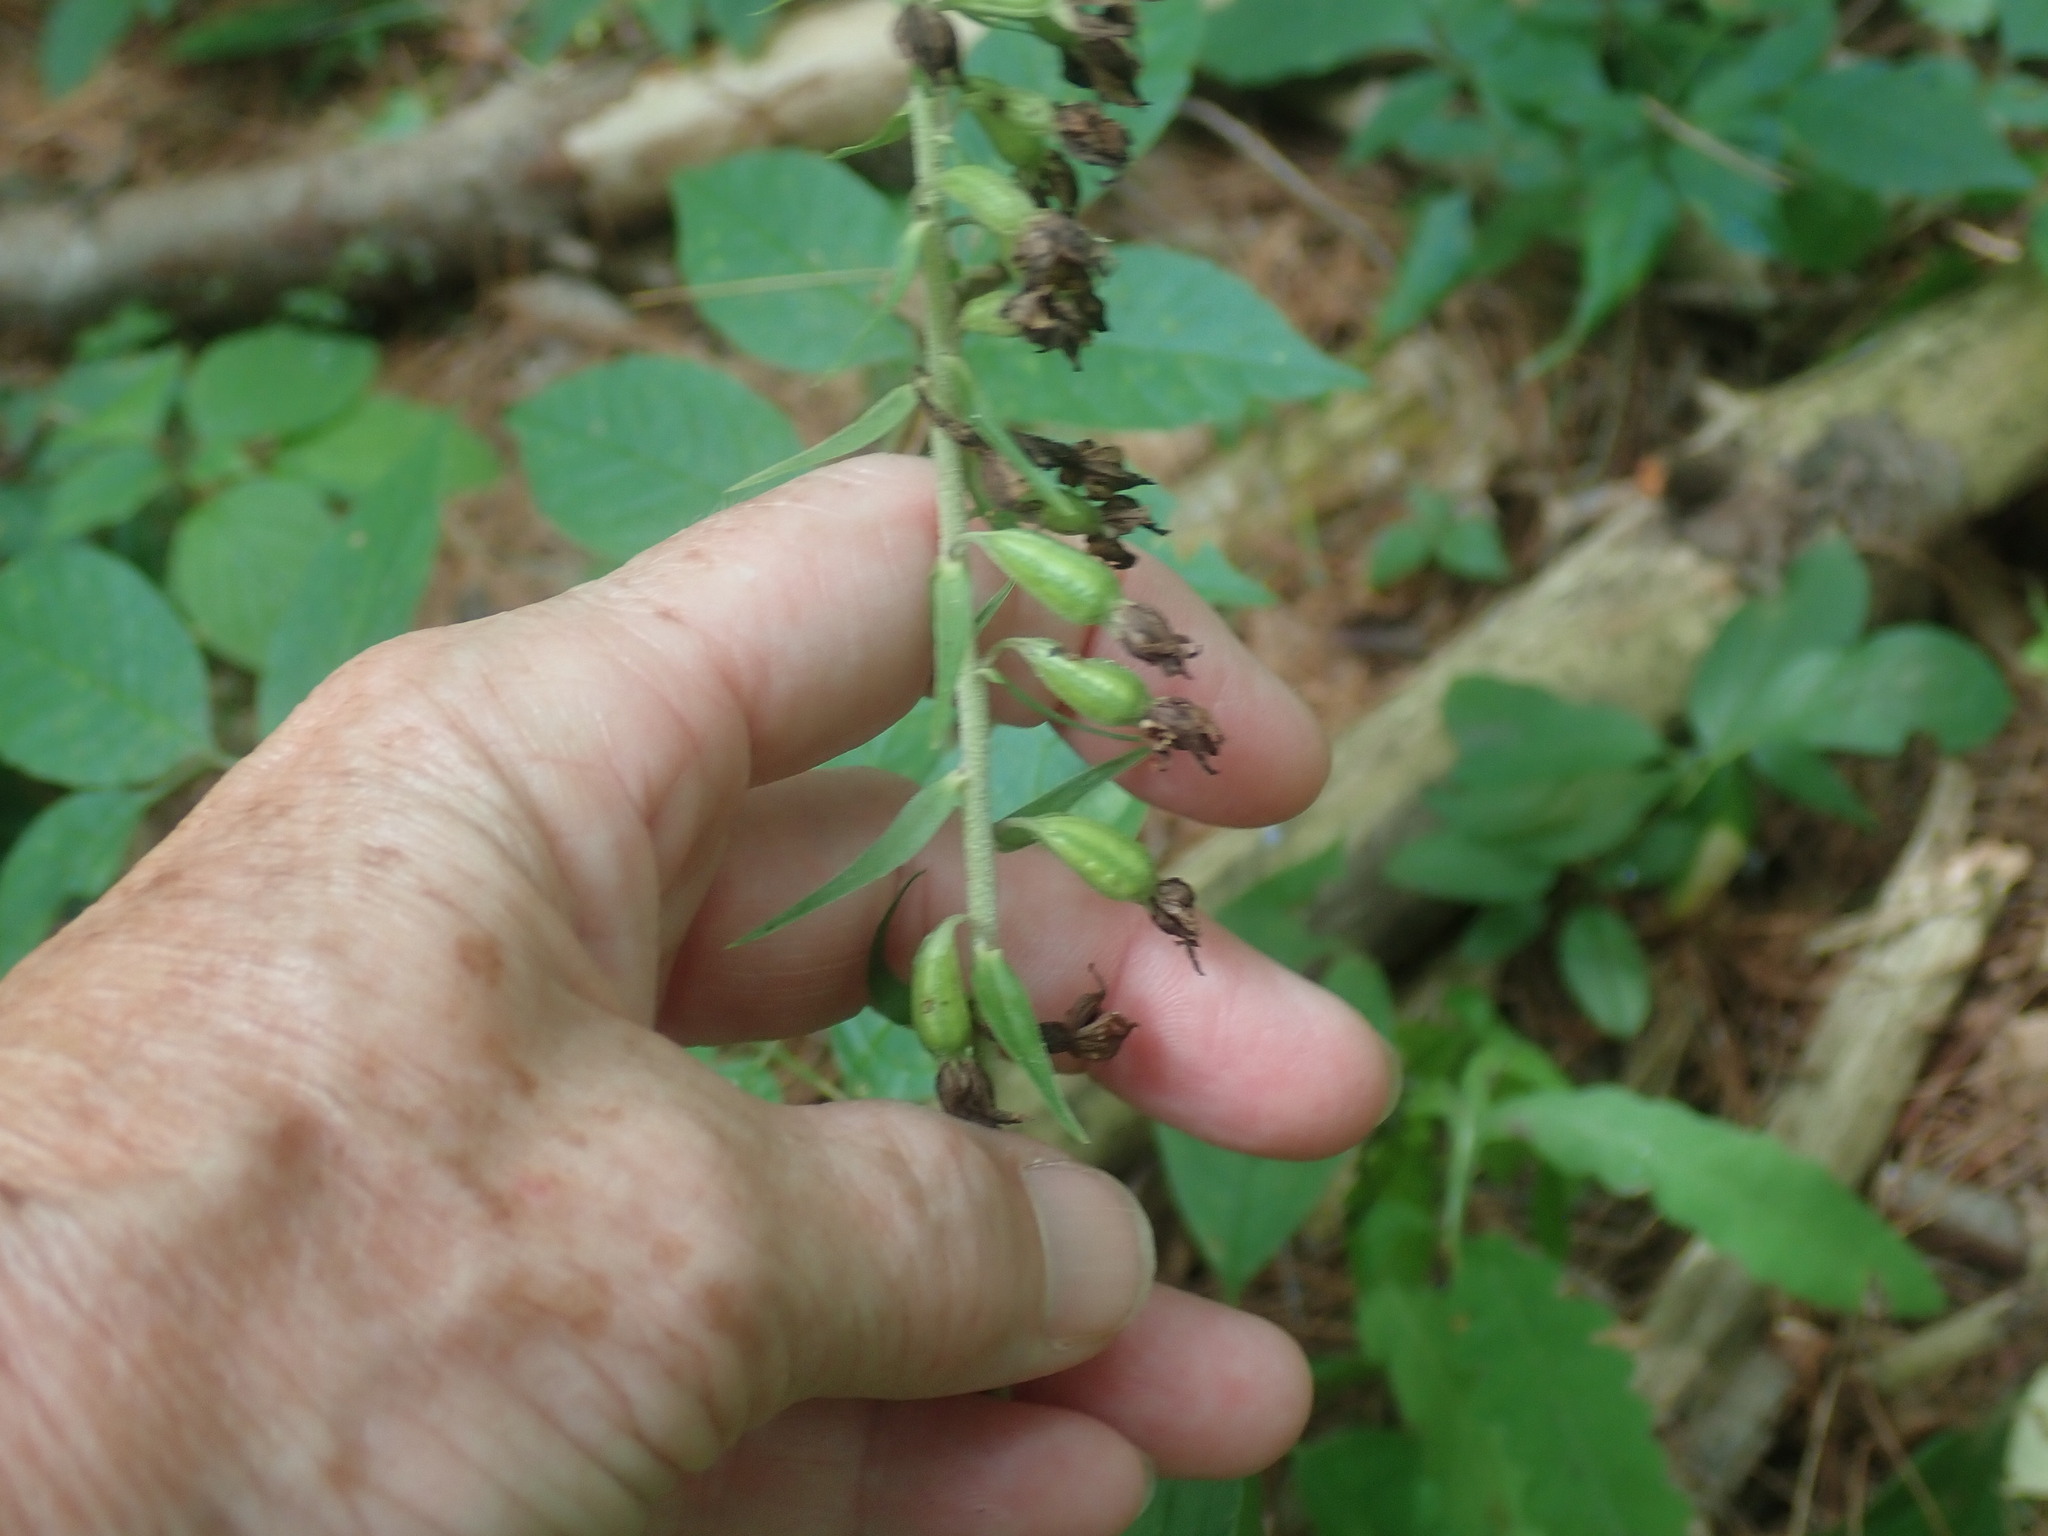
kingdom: Plantae
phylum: Tracheophyta
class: Liliopsida
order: Asparagales
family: Orchidaceae
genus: Epipactis
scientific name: Epipactis helleborine
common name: Broad-leaved helleborine
